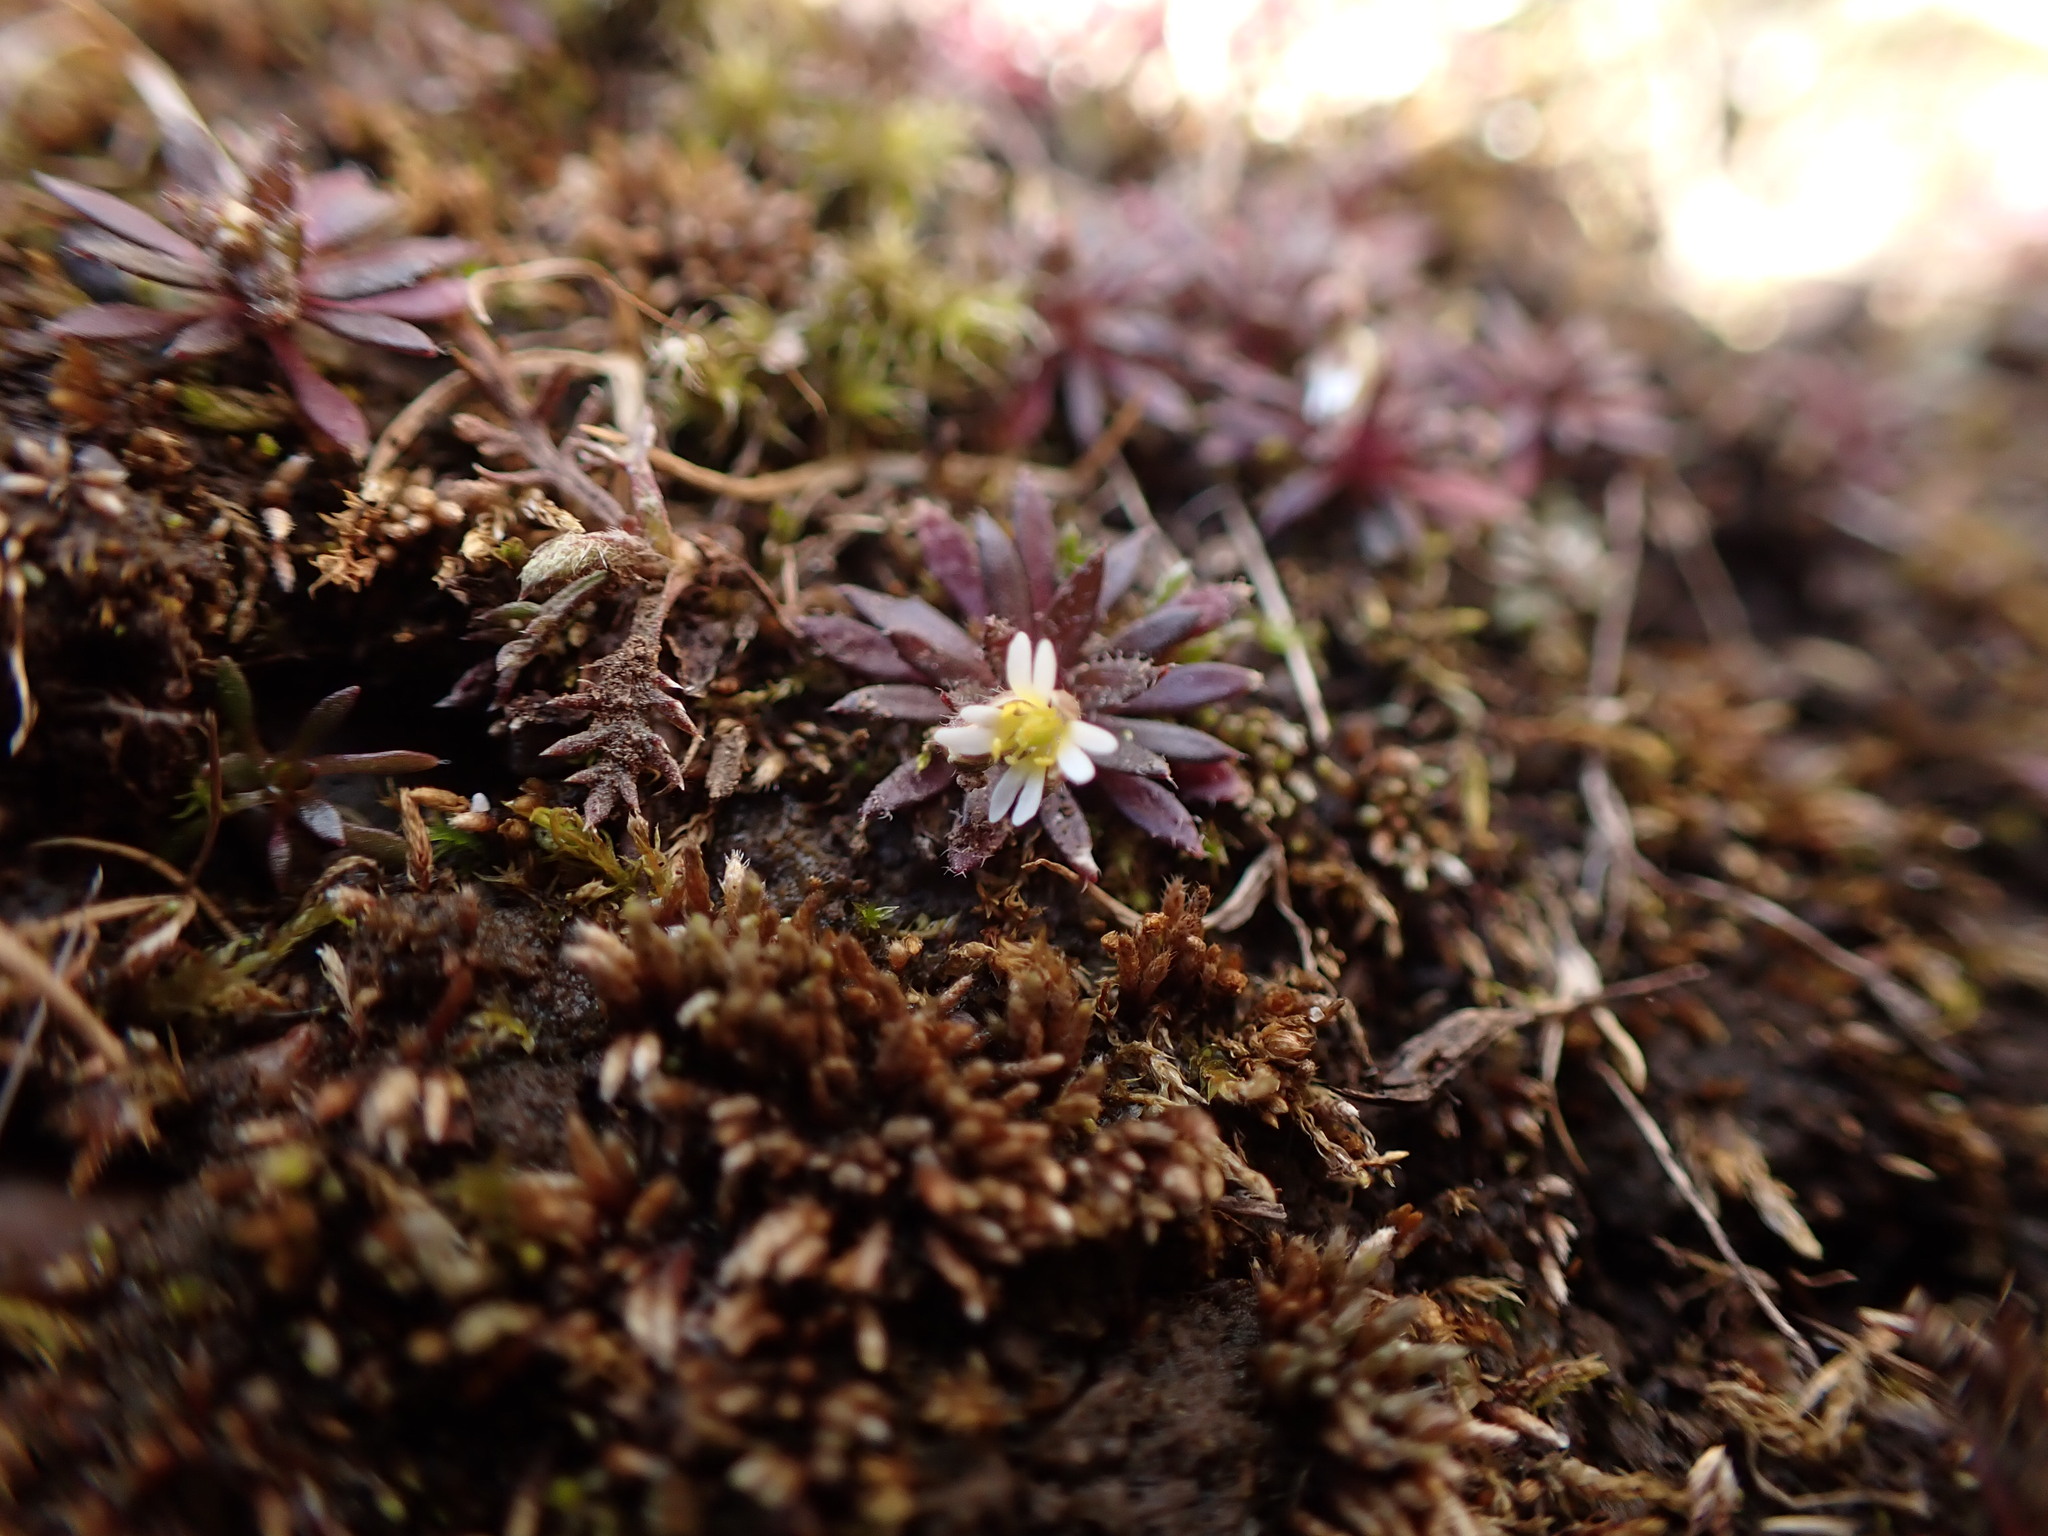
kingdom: Plantae
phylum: Tracheophyta
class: Magnoliopsida
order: Brassicales
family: Brassicaceae
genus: Draba
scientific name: Draba verna
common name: Spring draba
